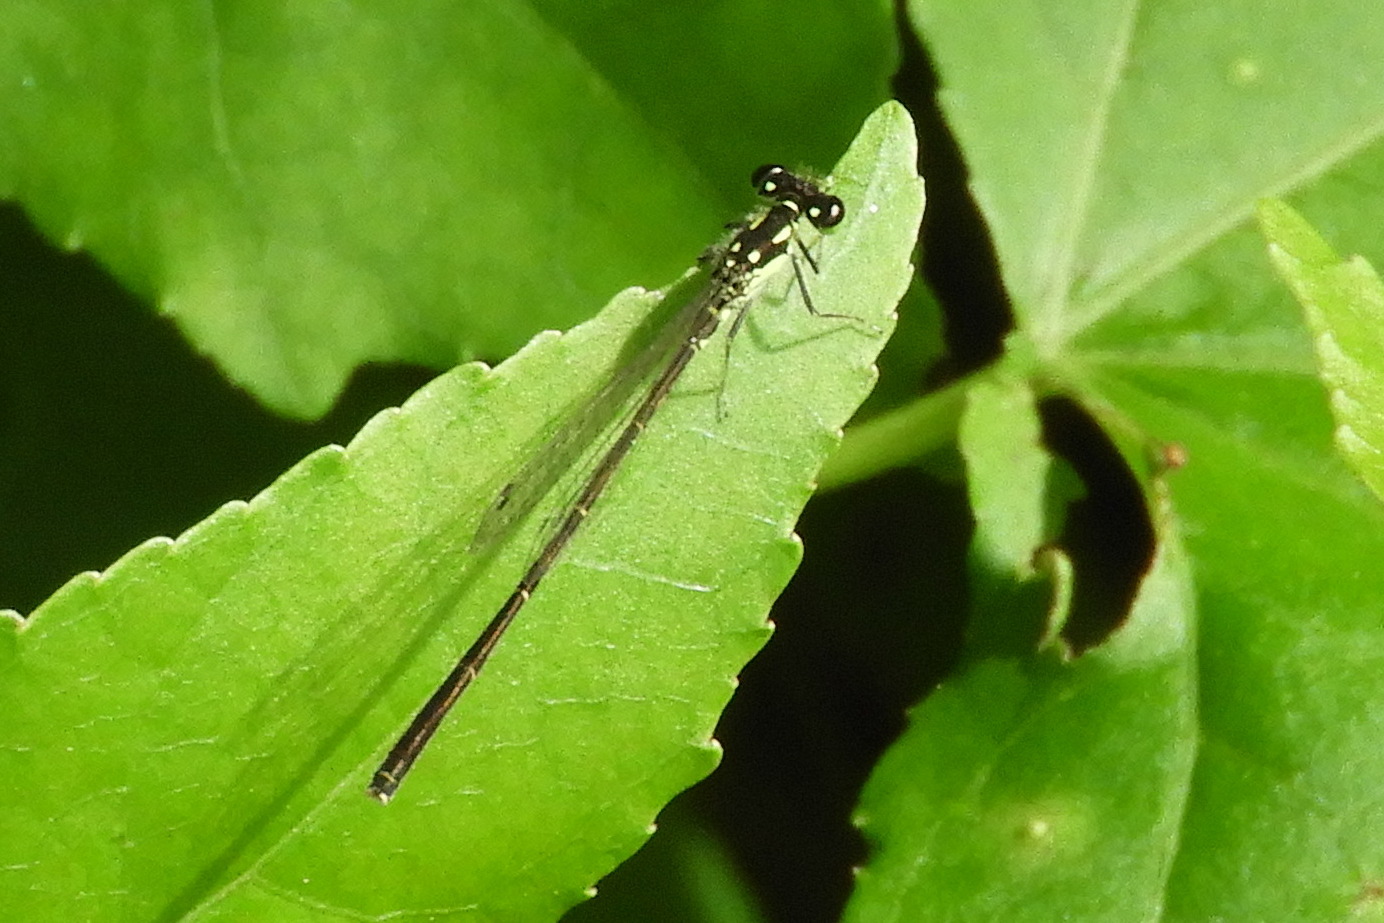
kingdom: Animalia
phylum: Arthropoda
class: Insecta
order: Odonata
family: Coenagrionidae
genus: Ischnura
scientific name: Ischnura posita
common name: Fragile forktail
